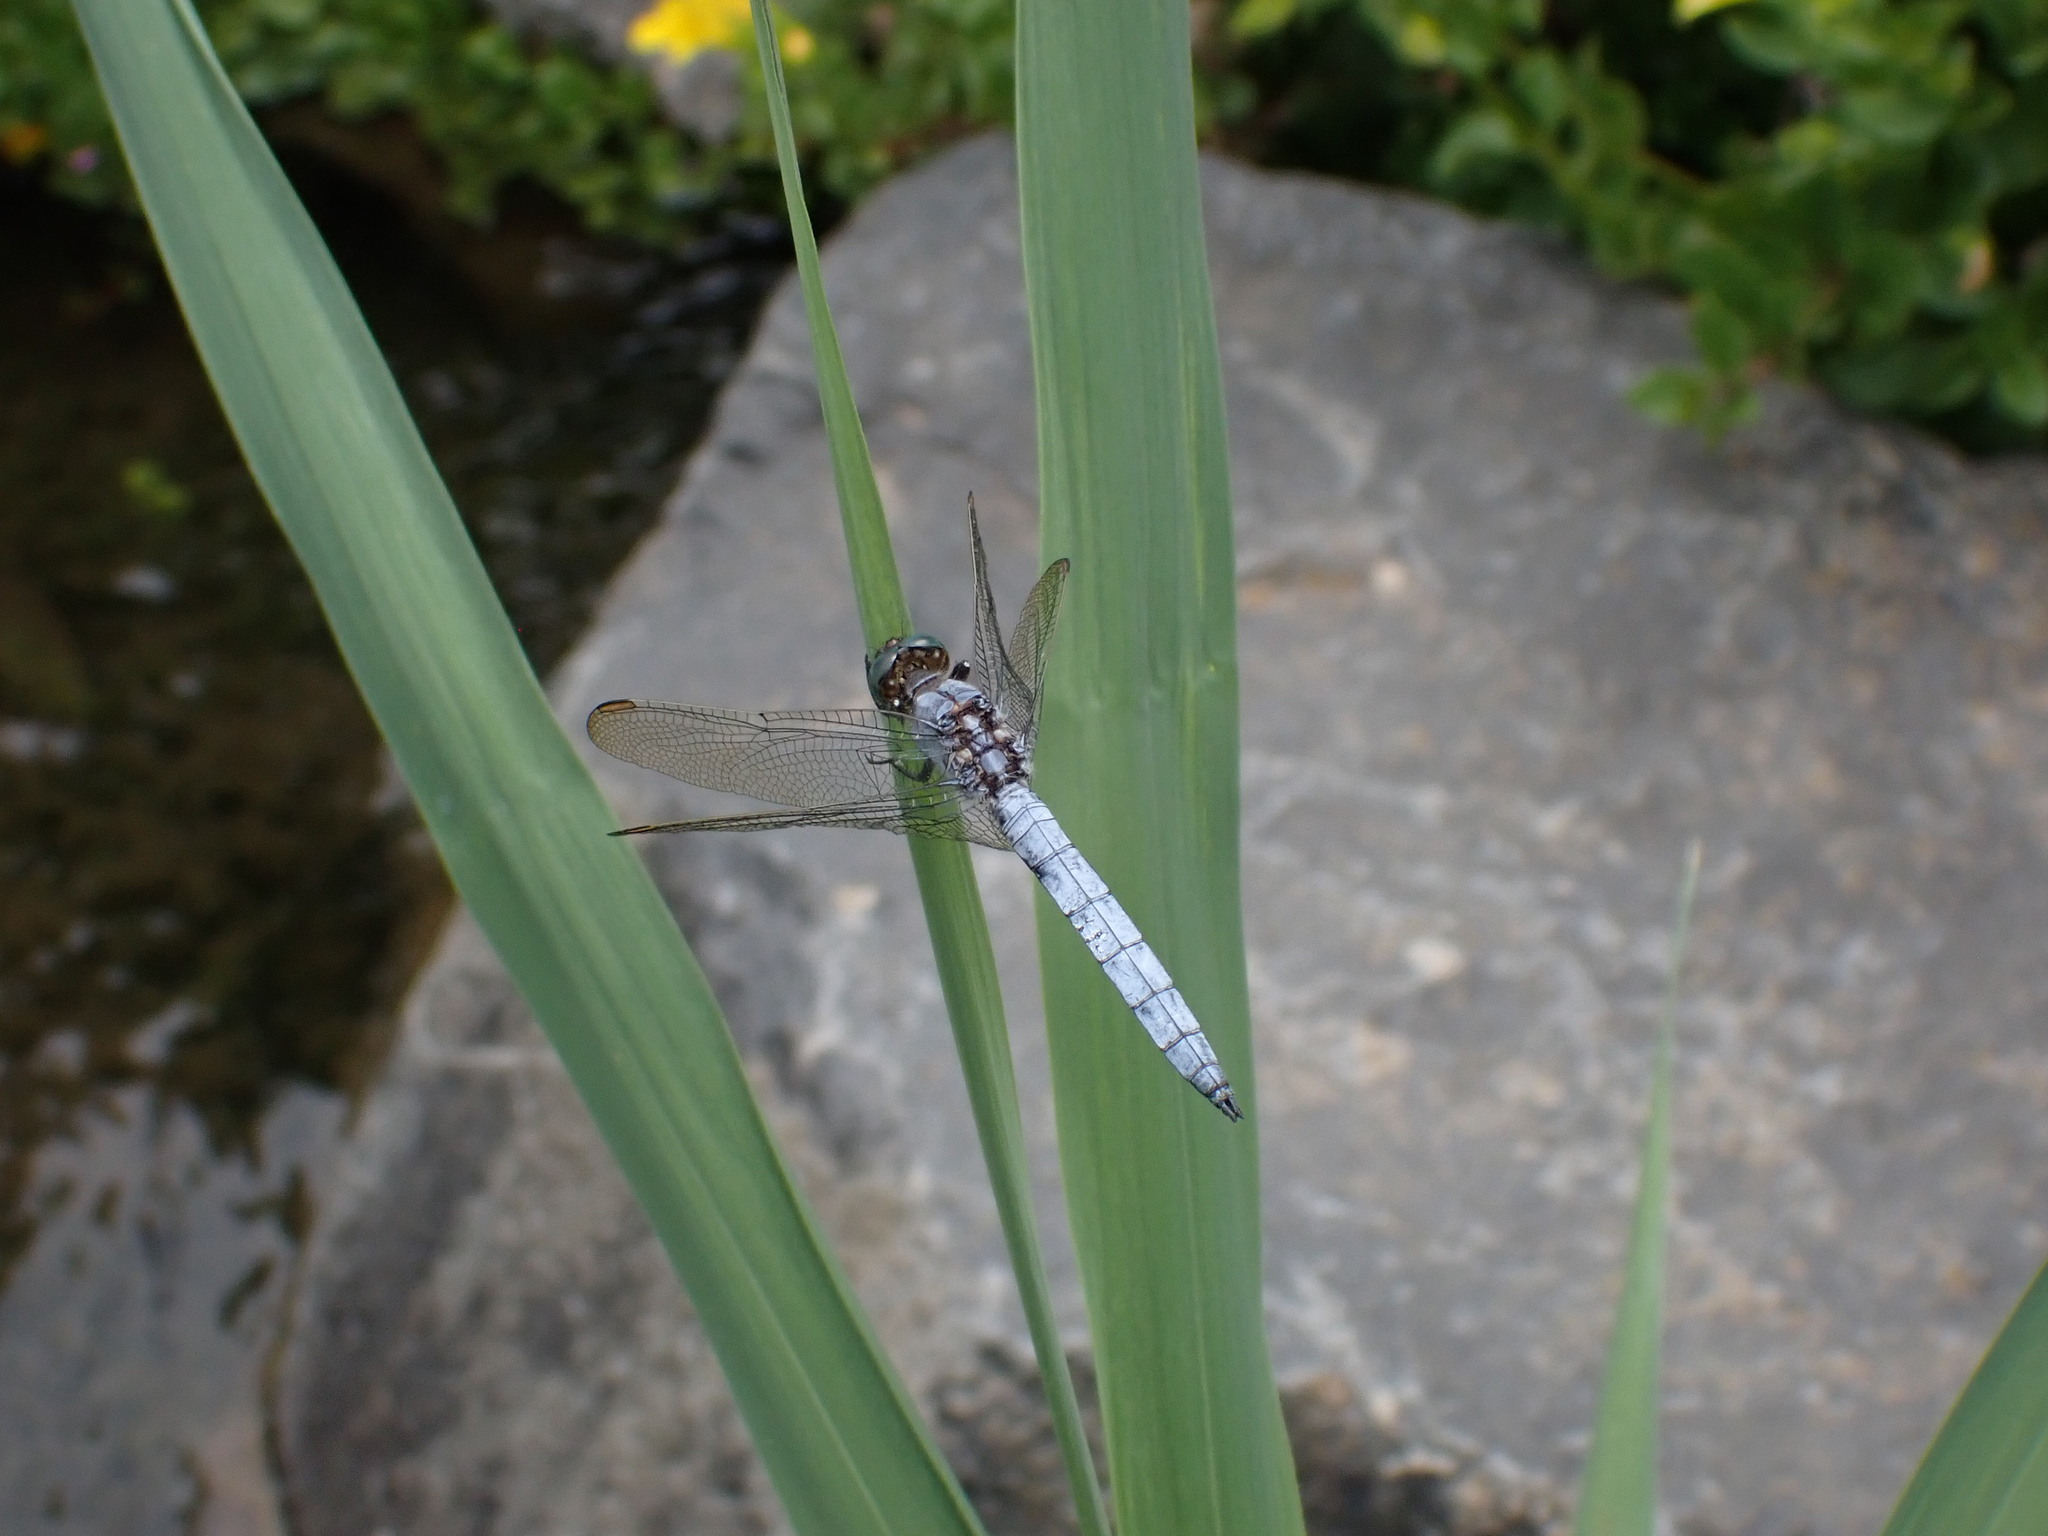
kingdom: Animalia
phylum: Arthropoda
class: Insecta
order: Odonata
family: Libellulidae
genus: Orthetrum
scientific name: Orthetrum coerulescens
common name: Keeled skimmer
